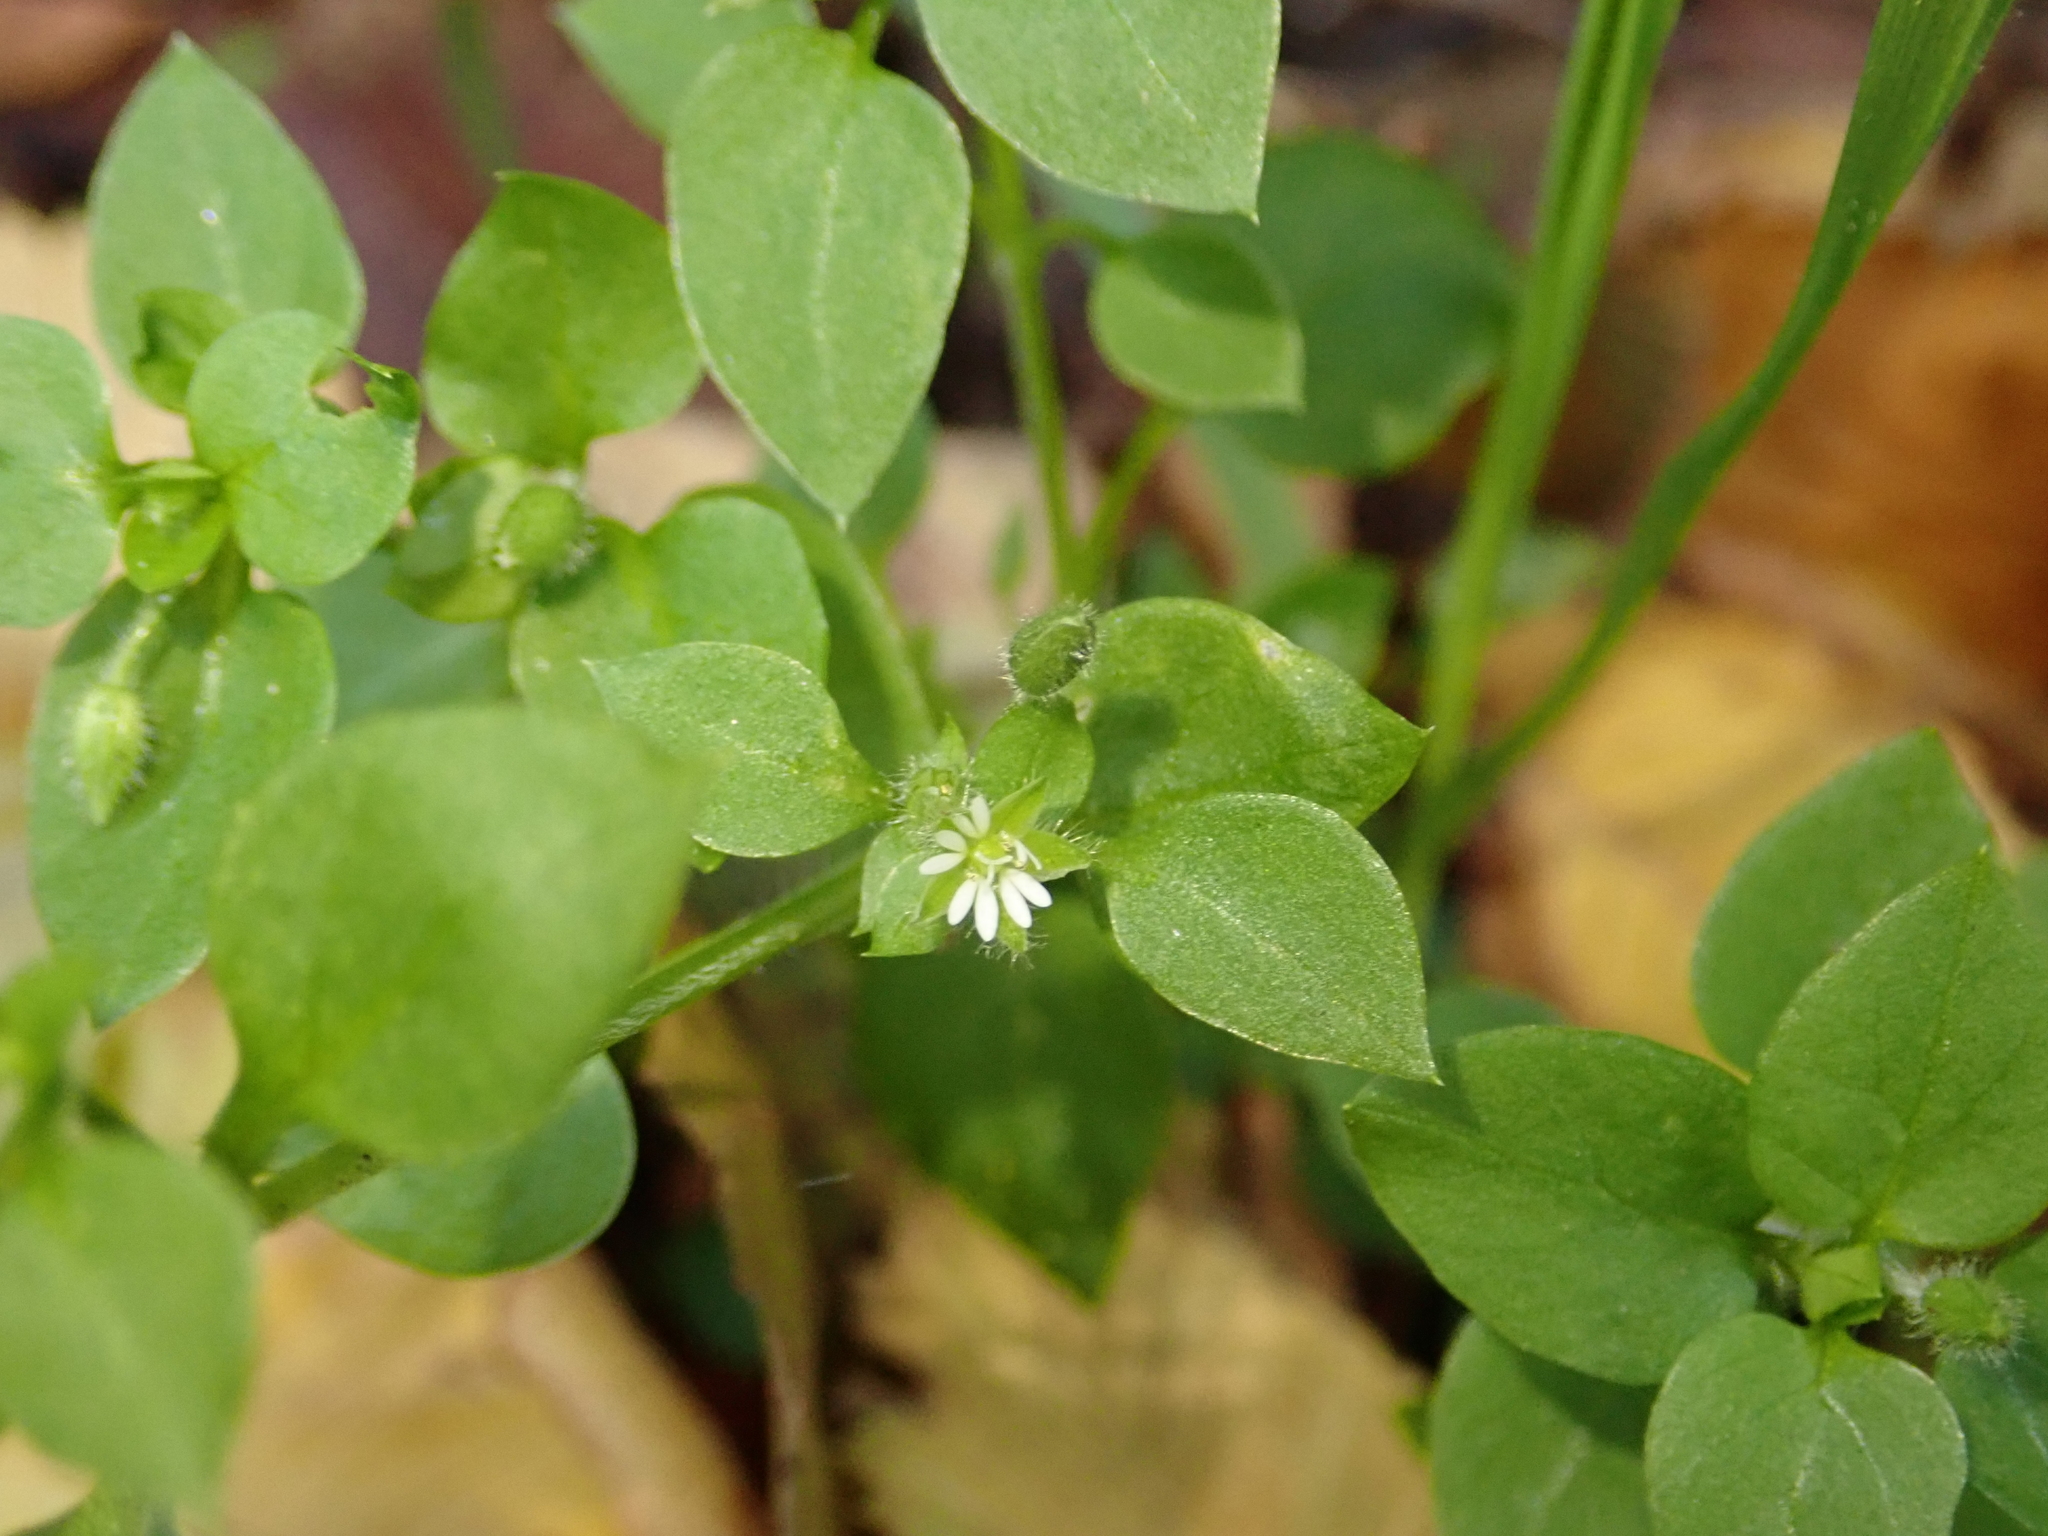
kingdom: Plantae
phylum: Tracheophyta
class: Magnoliopsida
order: Caryophyllales
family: Caryophyllaceae
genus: Stellaria
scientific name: Stellaria media
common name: Common chickweed
